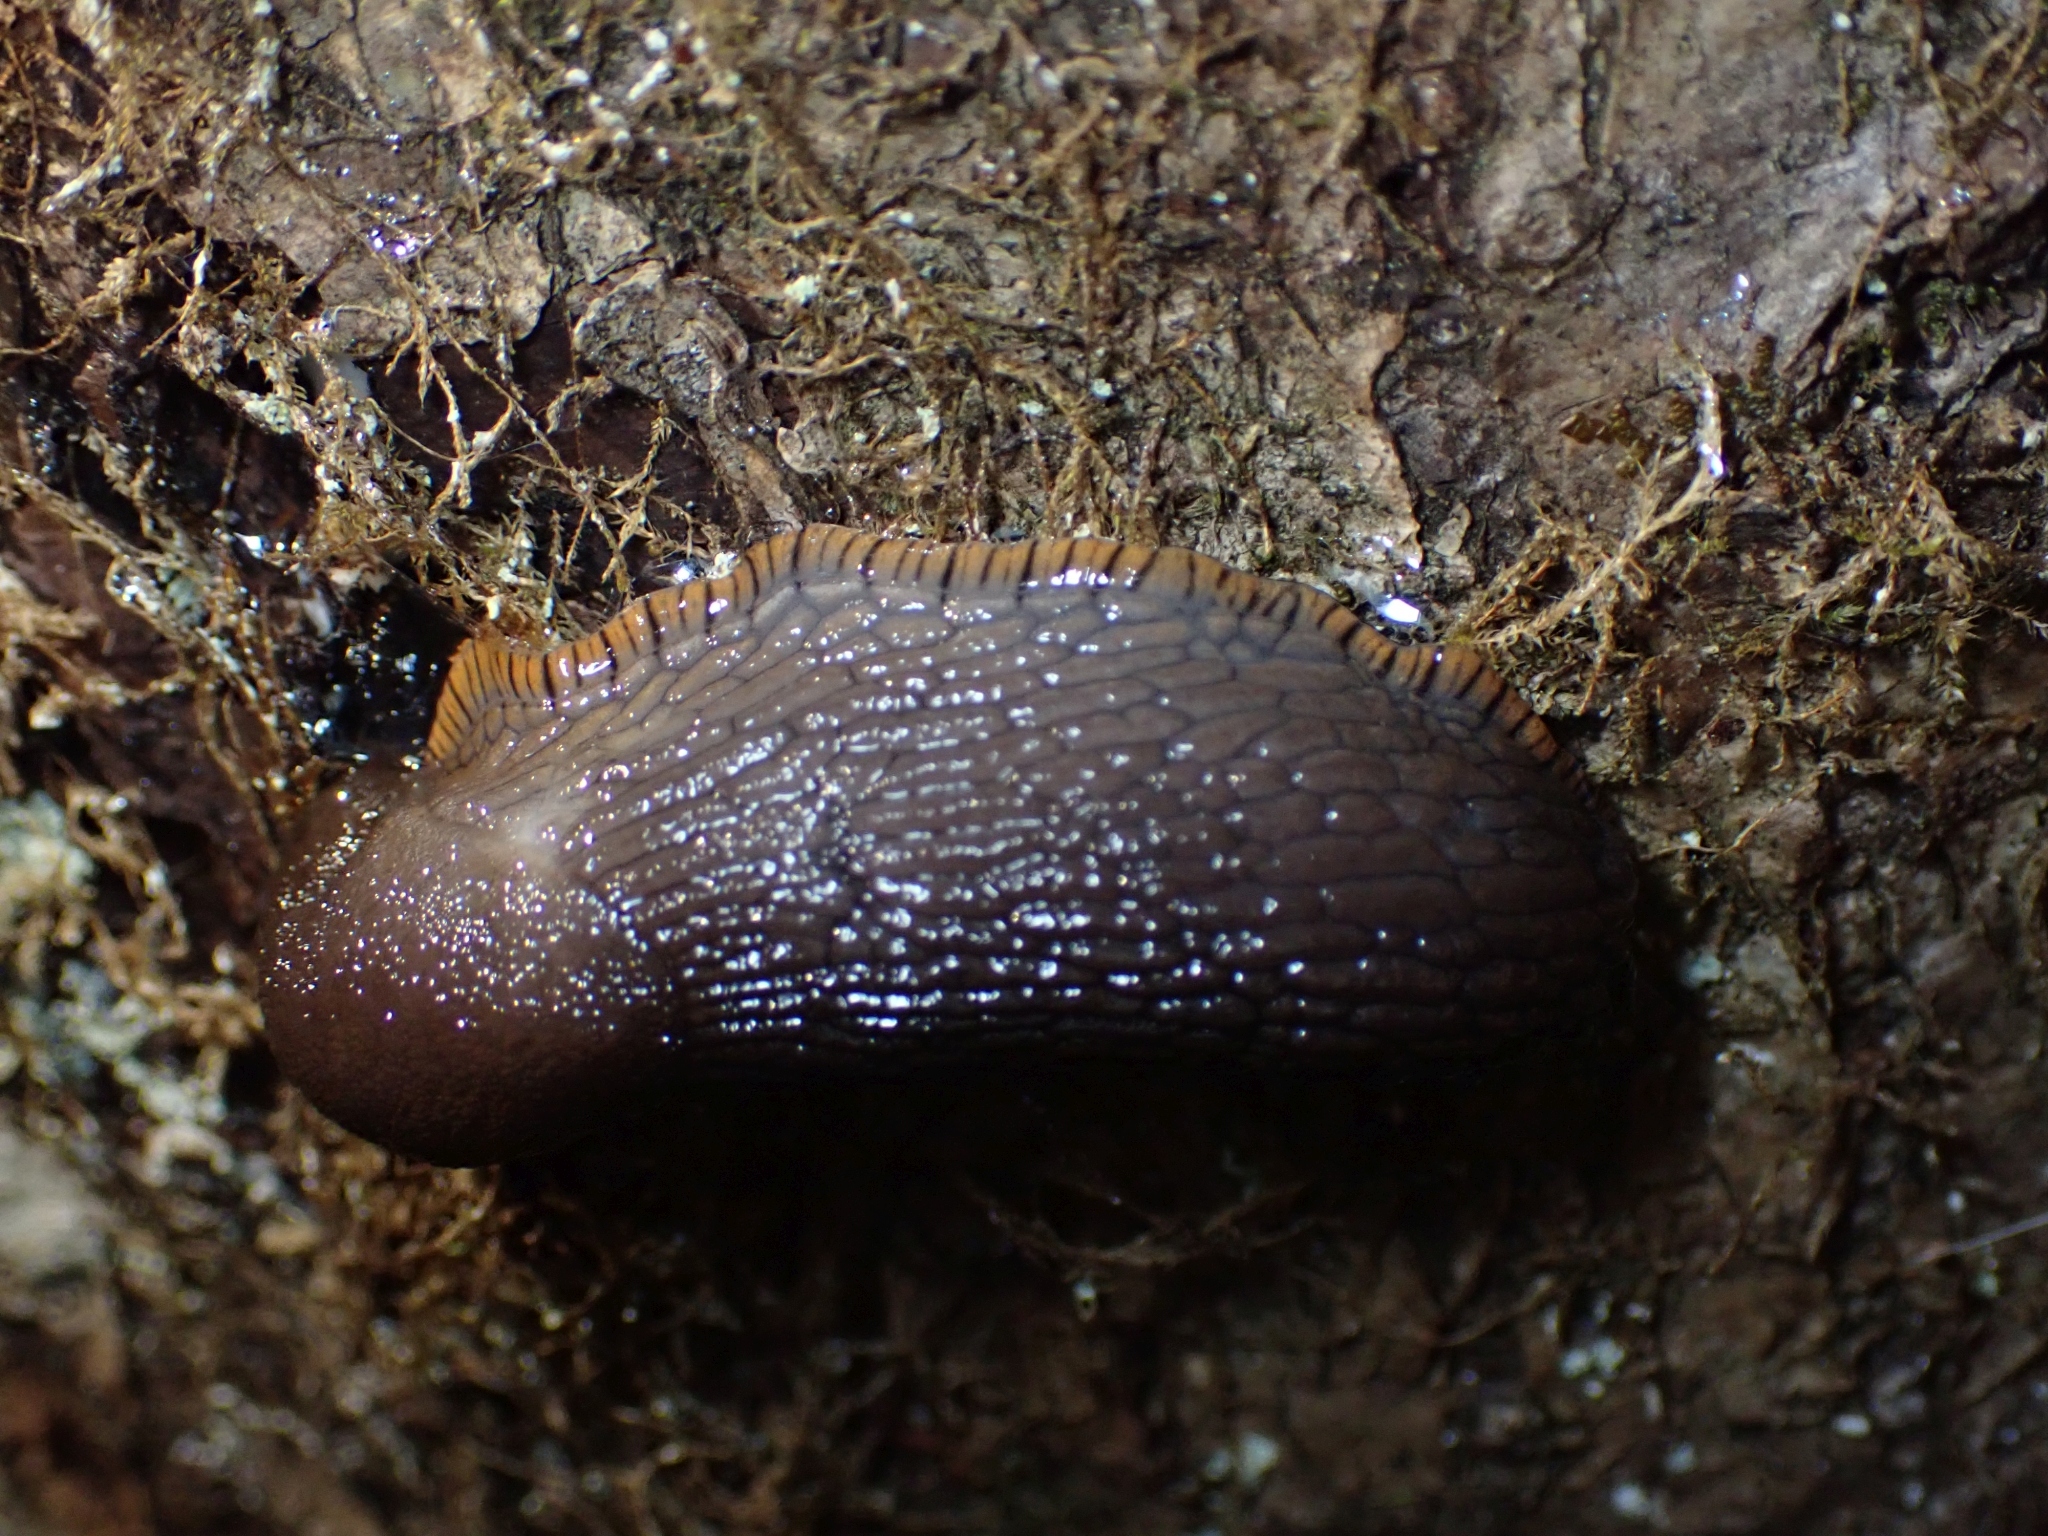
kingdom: Animalia
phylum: Mollusca
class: Gastropoda
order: Stylommatophora
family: Arionidae
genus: Arion
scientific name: Arion
